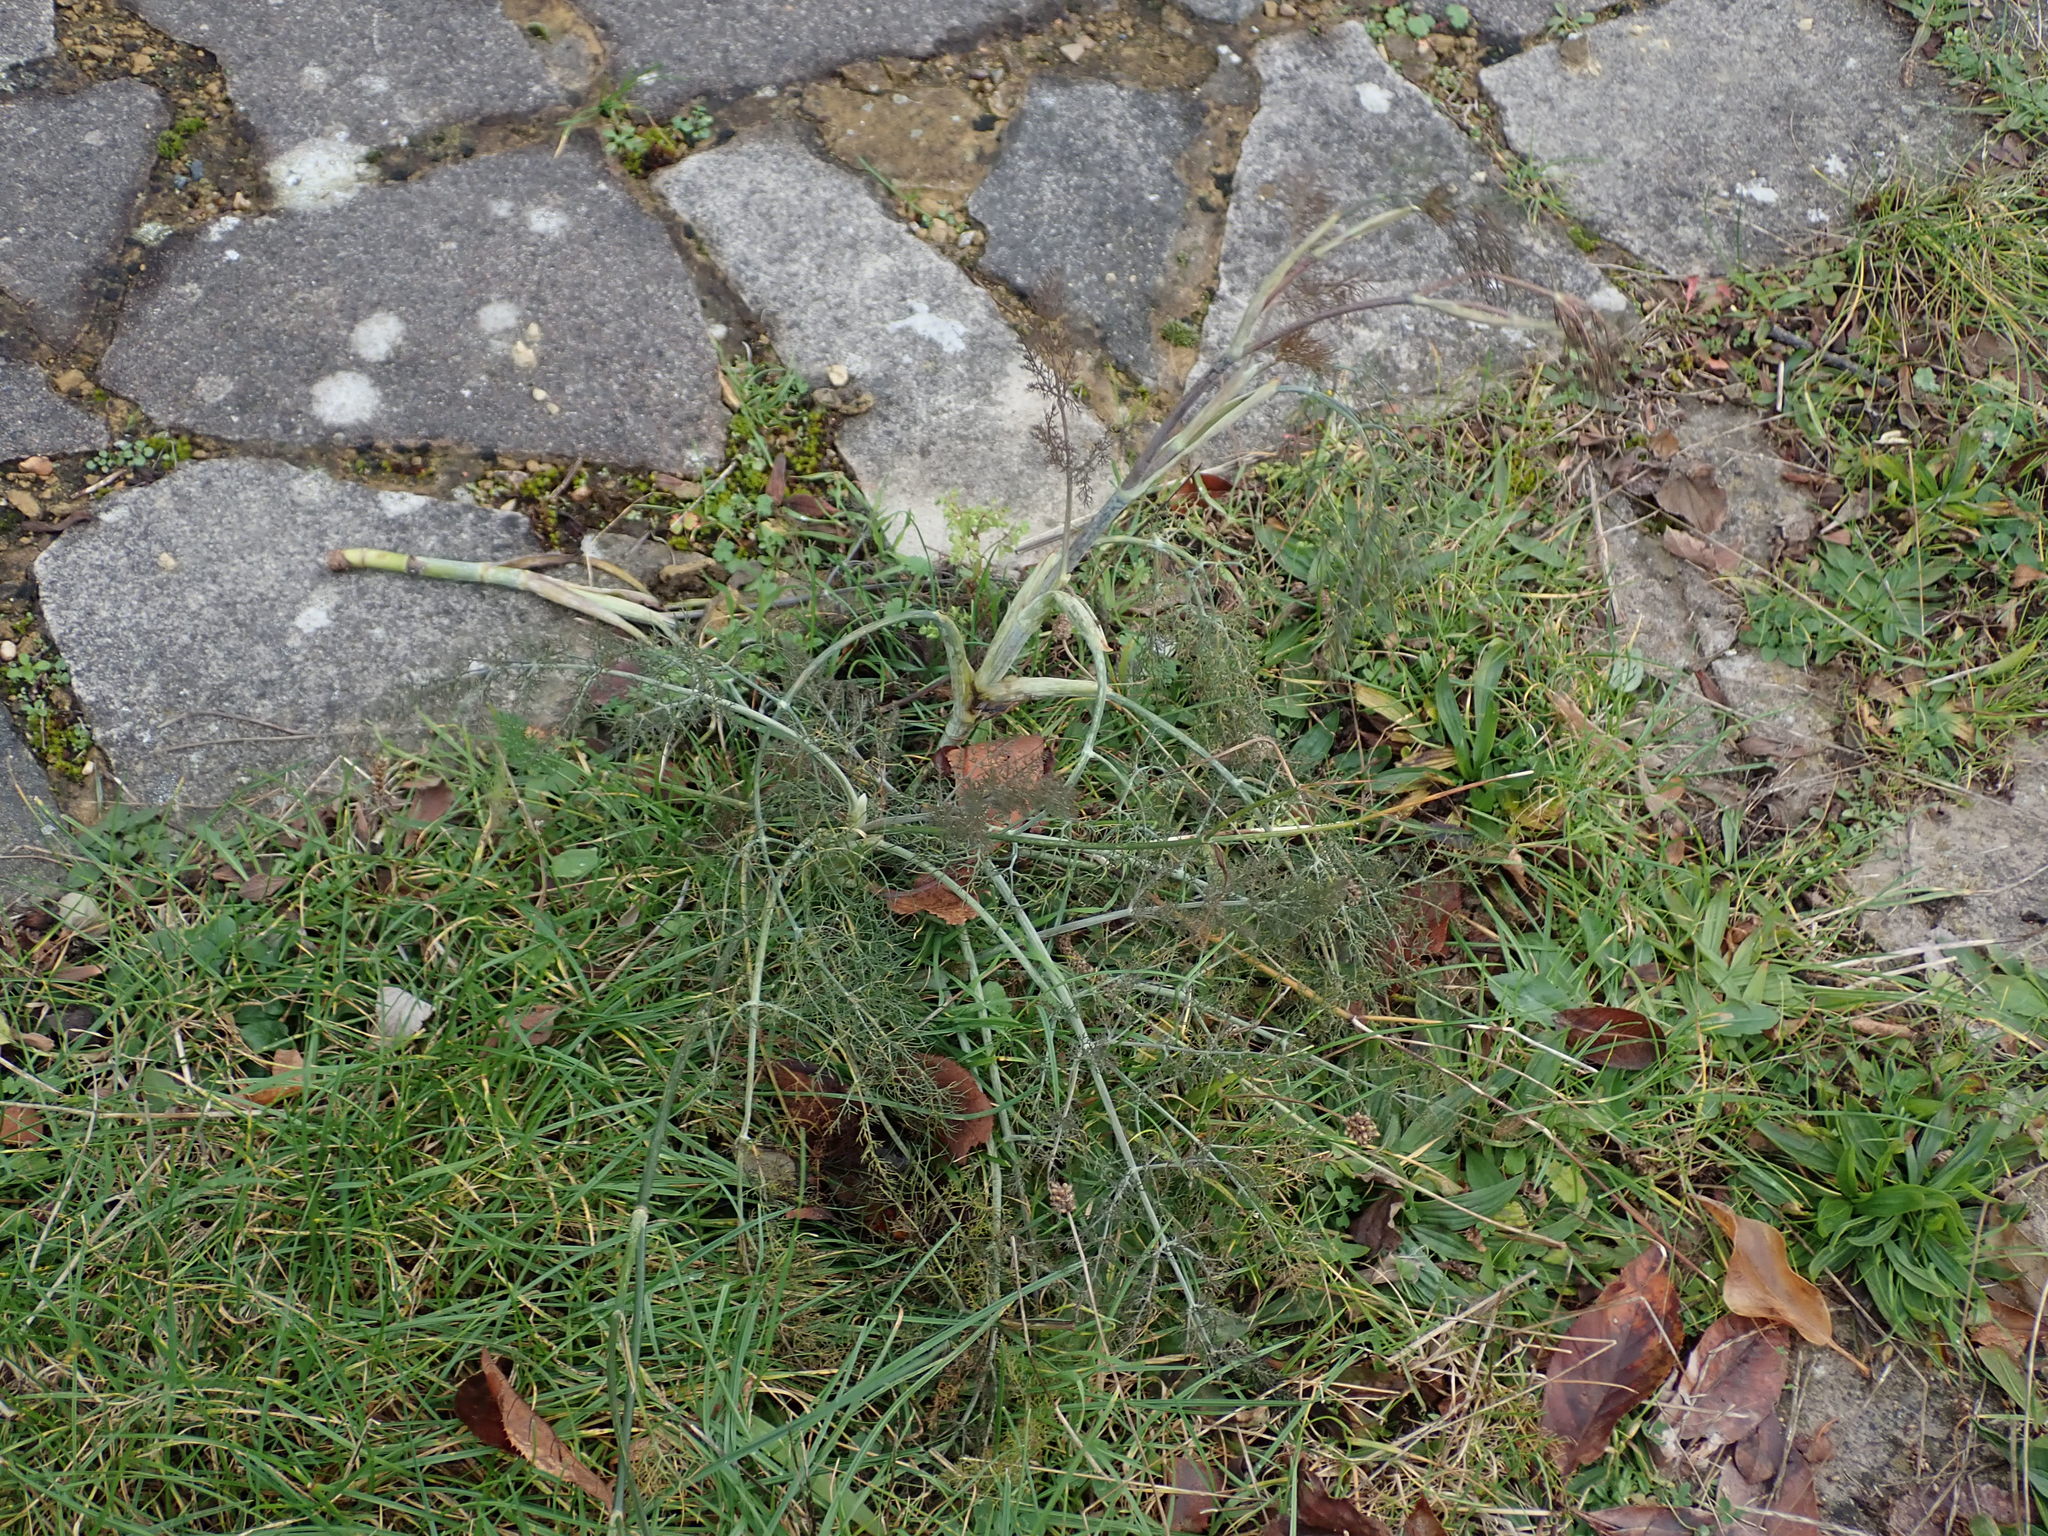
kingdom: Plantae
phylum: Tracheophyta
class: Magnoliopsida
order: Apiales
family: Apiaceae
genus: Foeniculum
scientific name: Foeniculum vulgare
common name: Fennel
